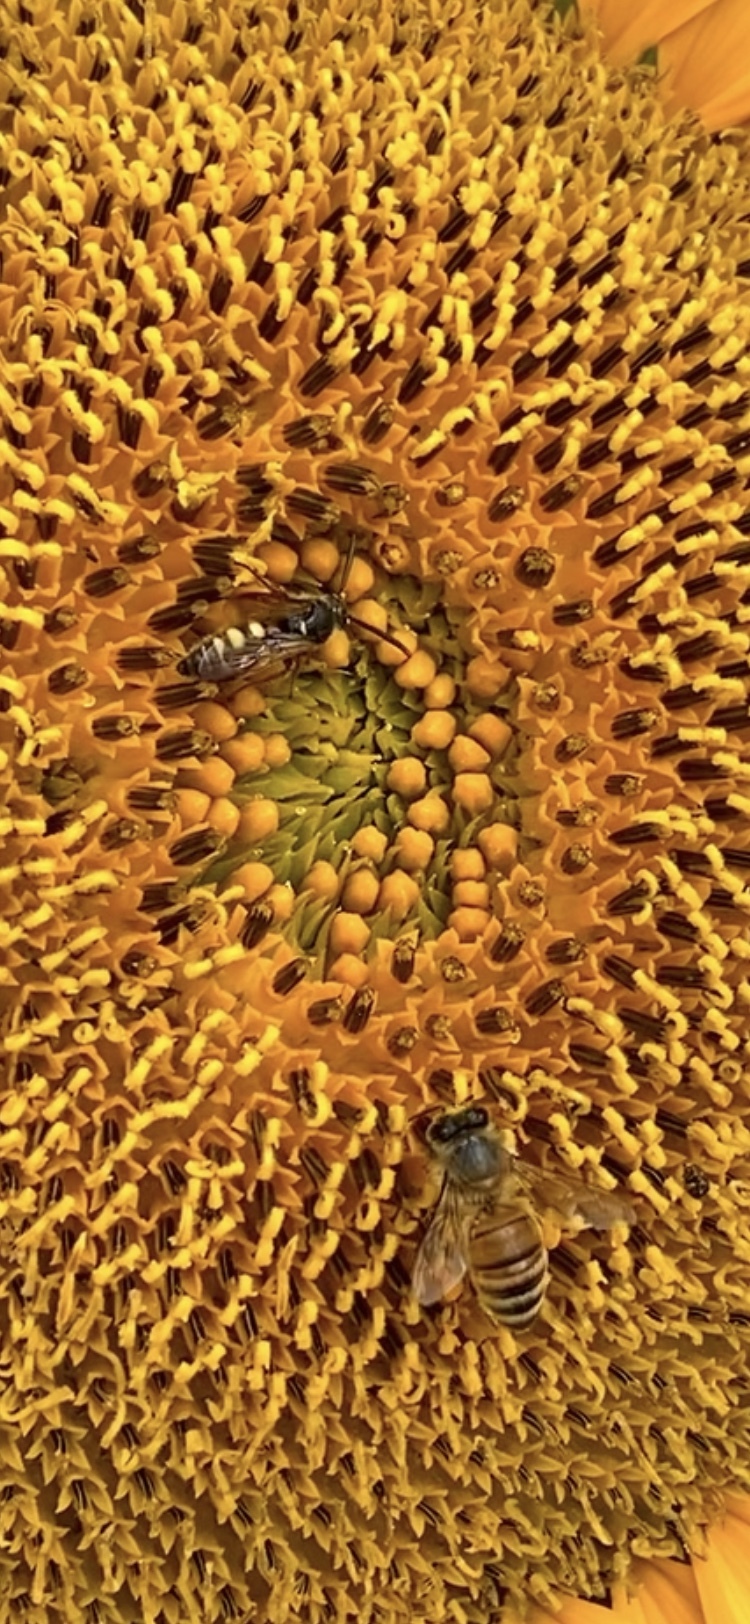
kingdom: Animalia
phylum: Arthropoda
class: Insecta
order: Hymenoptera
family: Apidae
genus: Apis
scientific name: Apis mellifera
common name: Honey bee
